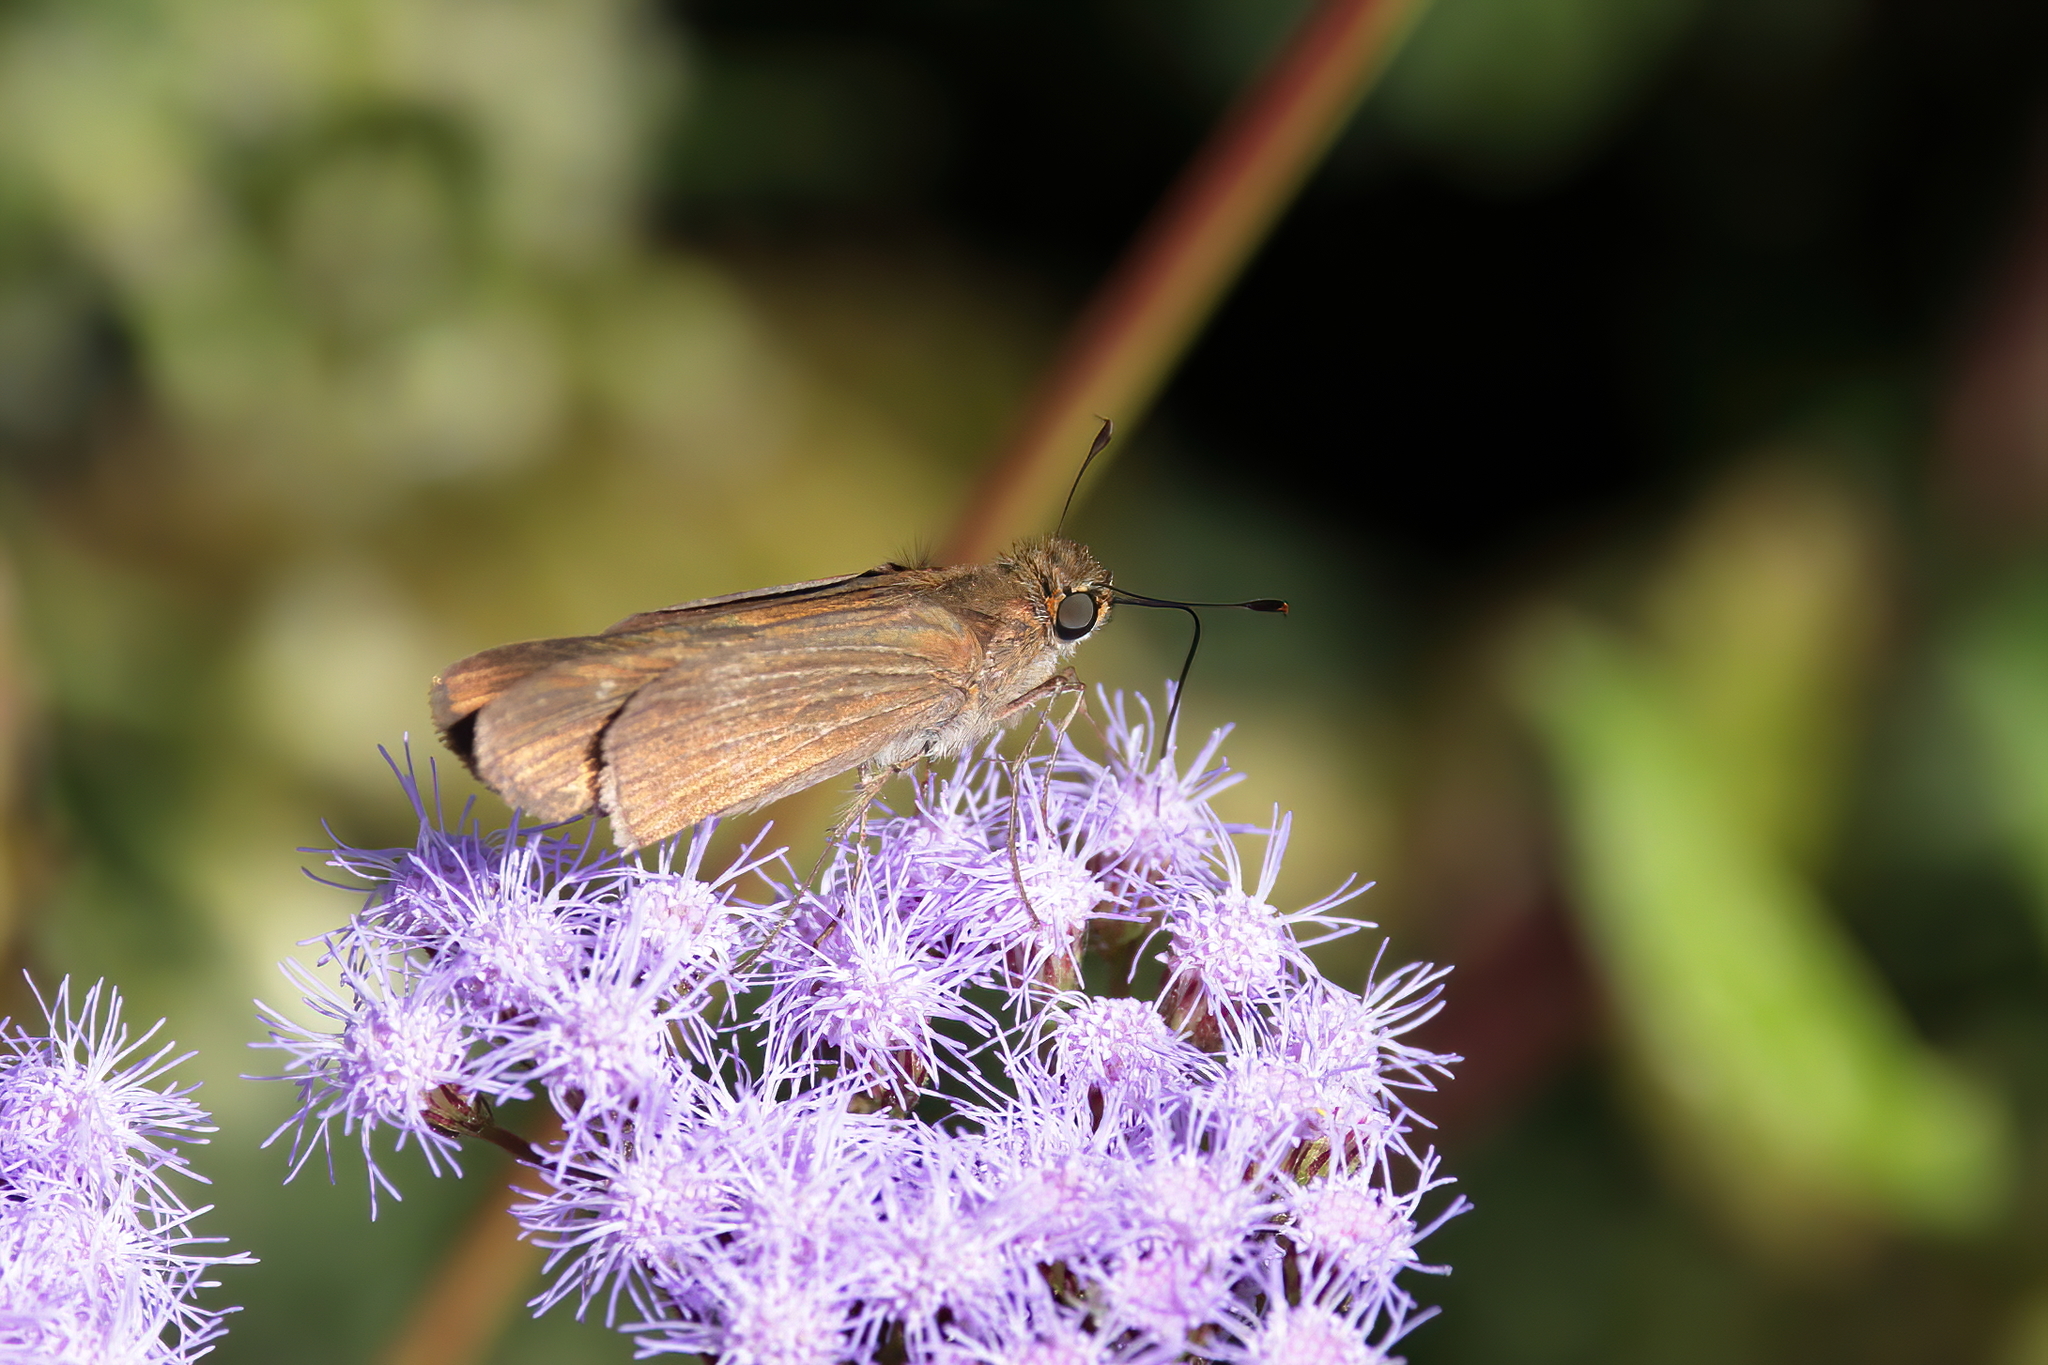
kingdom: Animalia
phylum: Arthropoda
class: Insecta
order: Lepidoptera
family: Hesperiidae
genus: Panoquina
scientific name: Panoquina ocola
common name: Ocola skipper
